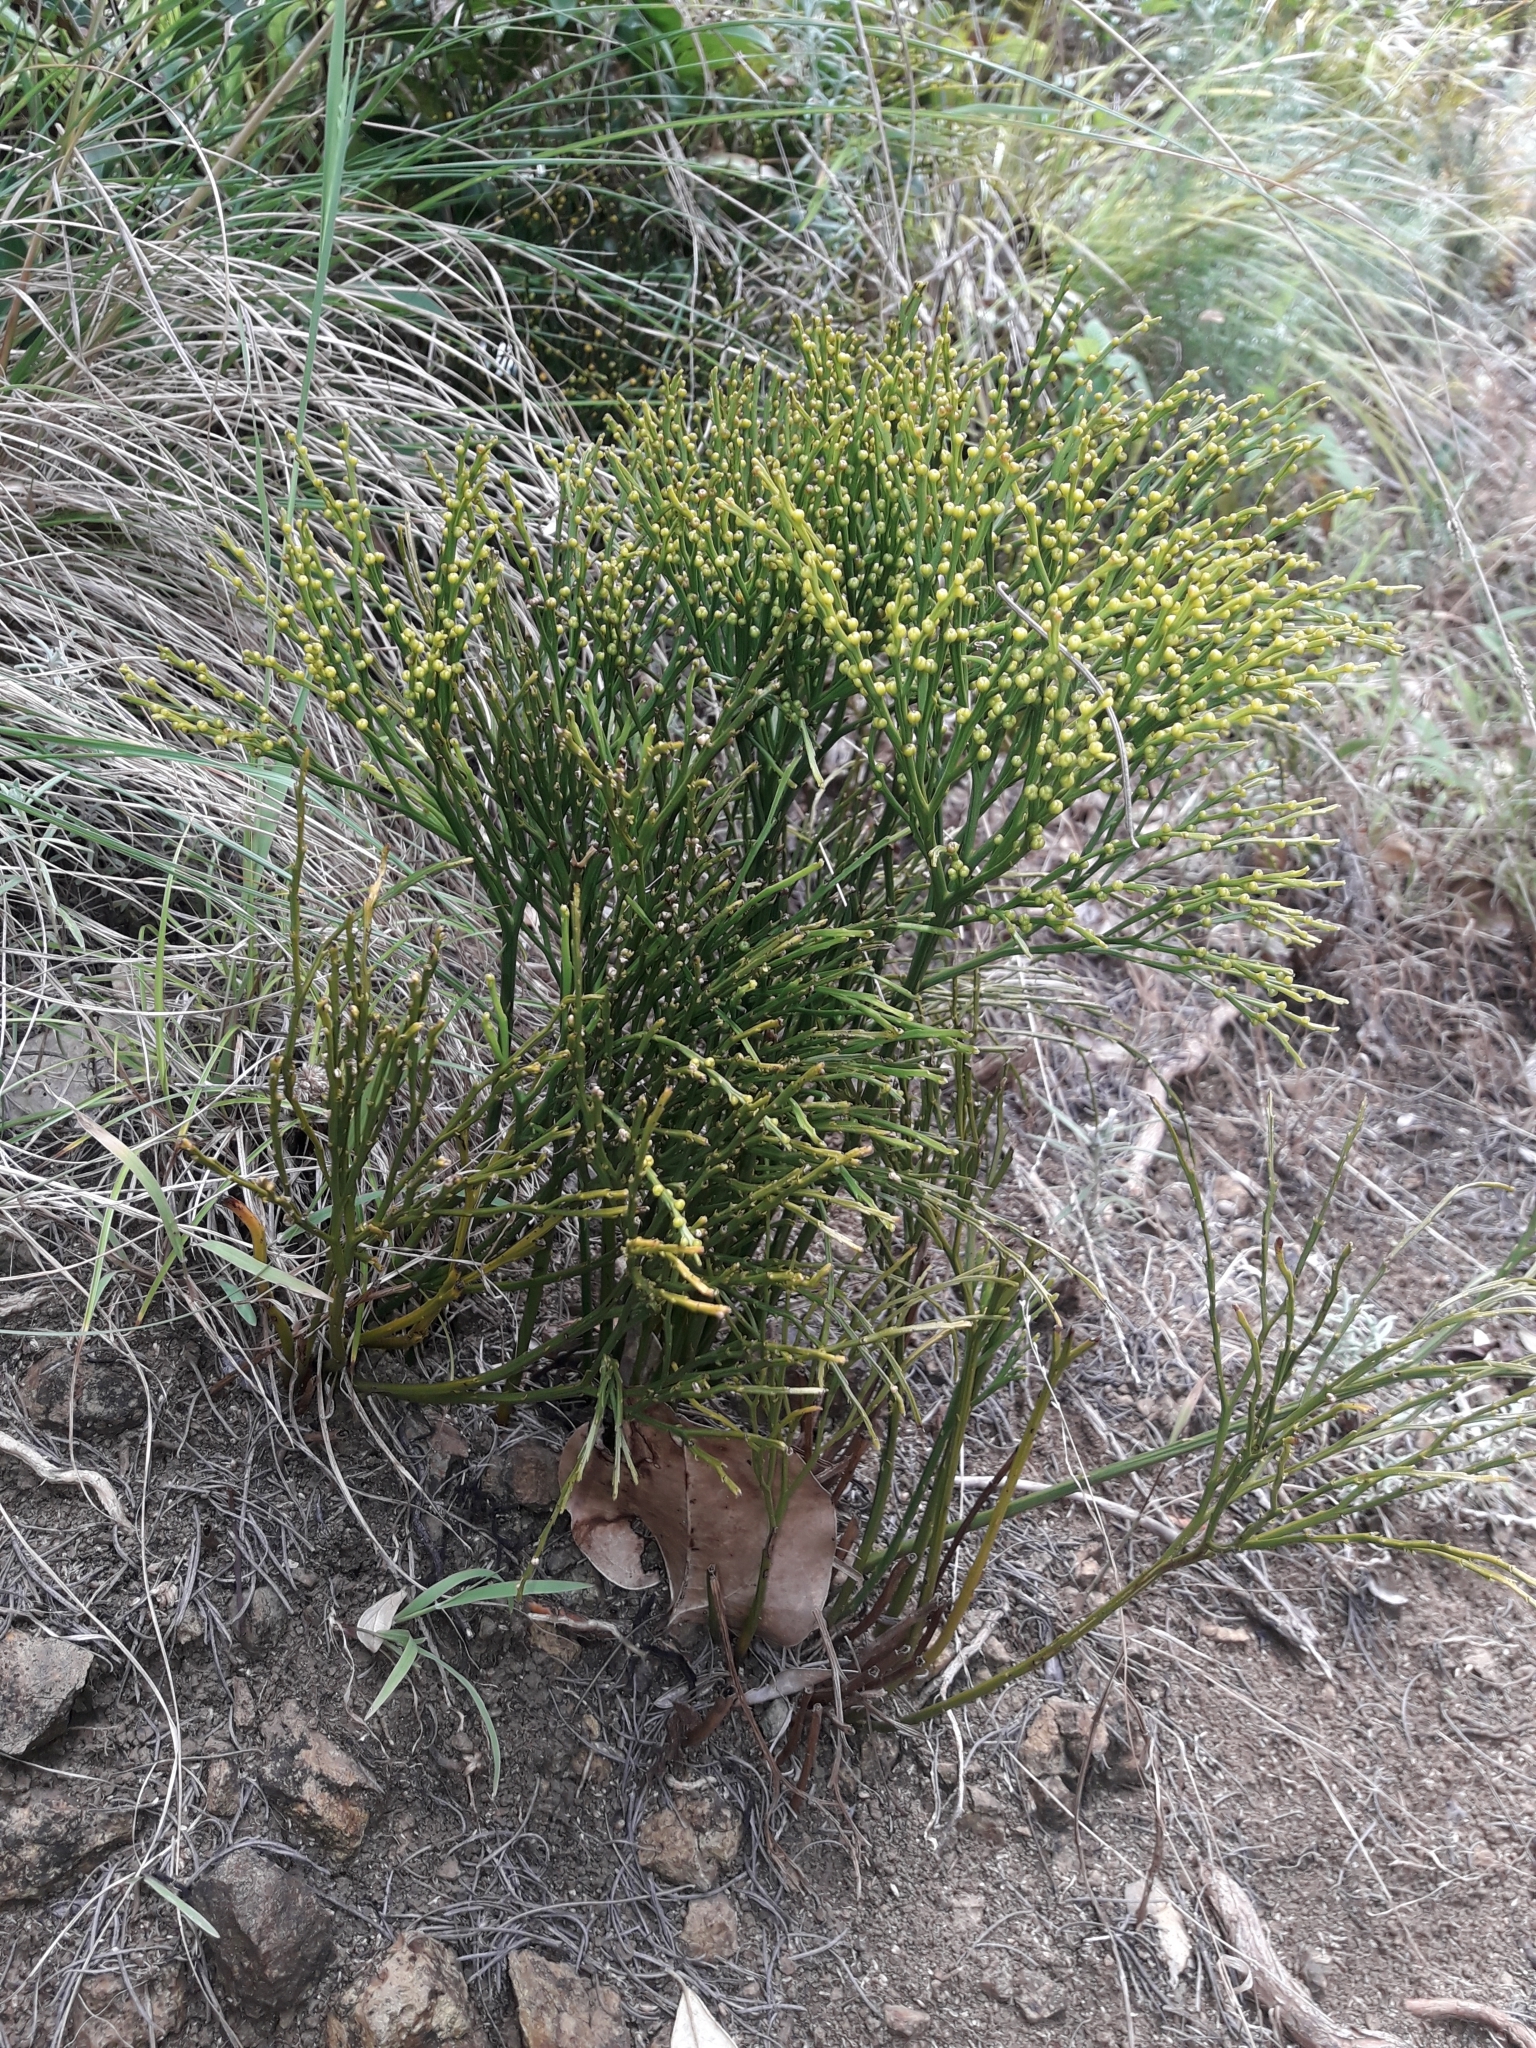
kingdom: Plantae
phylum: Tracheophyta
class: Polypodiopsida
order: Psilotales
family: Psilotaceae
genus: Psilotum
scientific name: Psilotum nudum
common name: Skeleton fork fern
